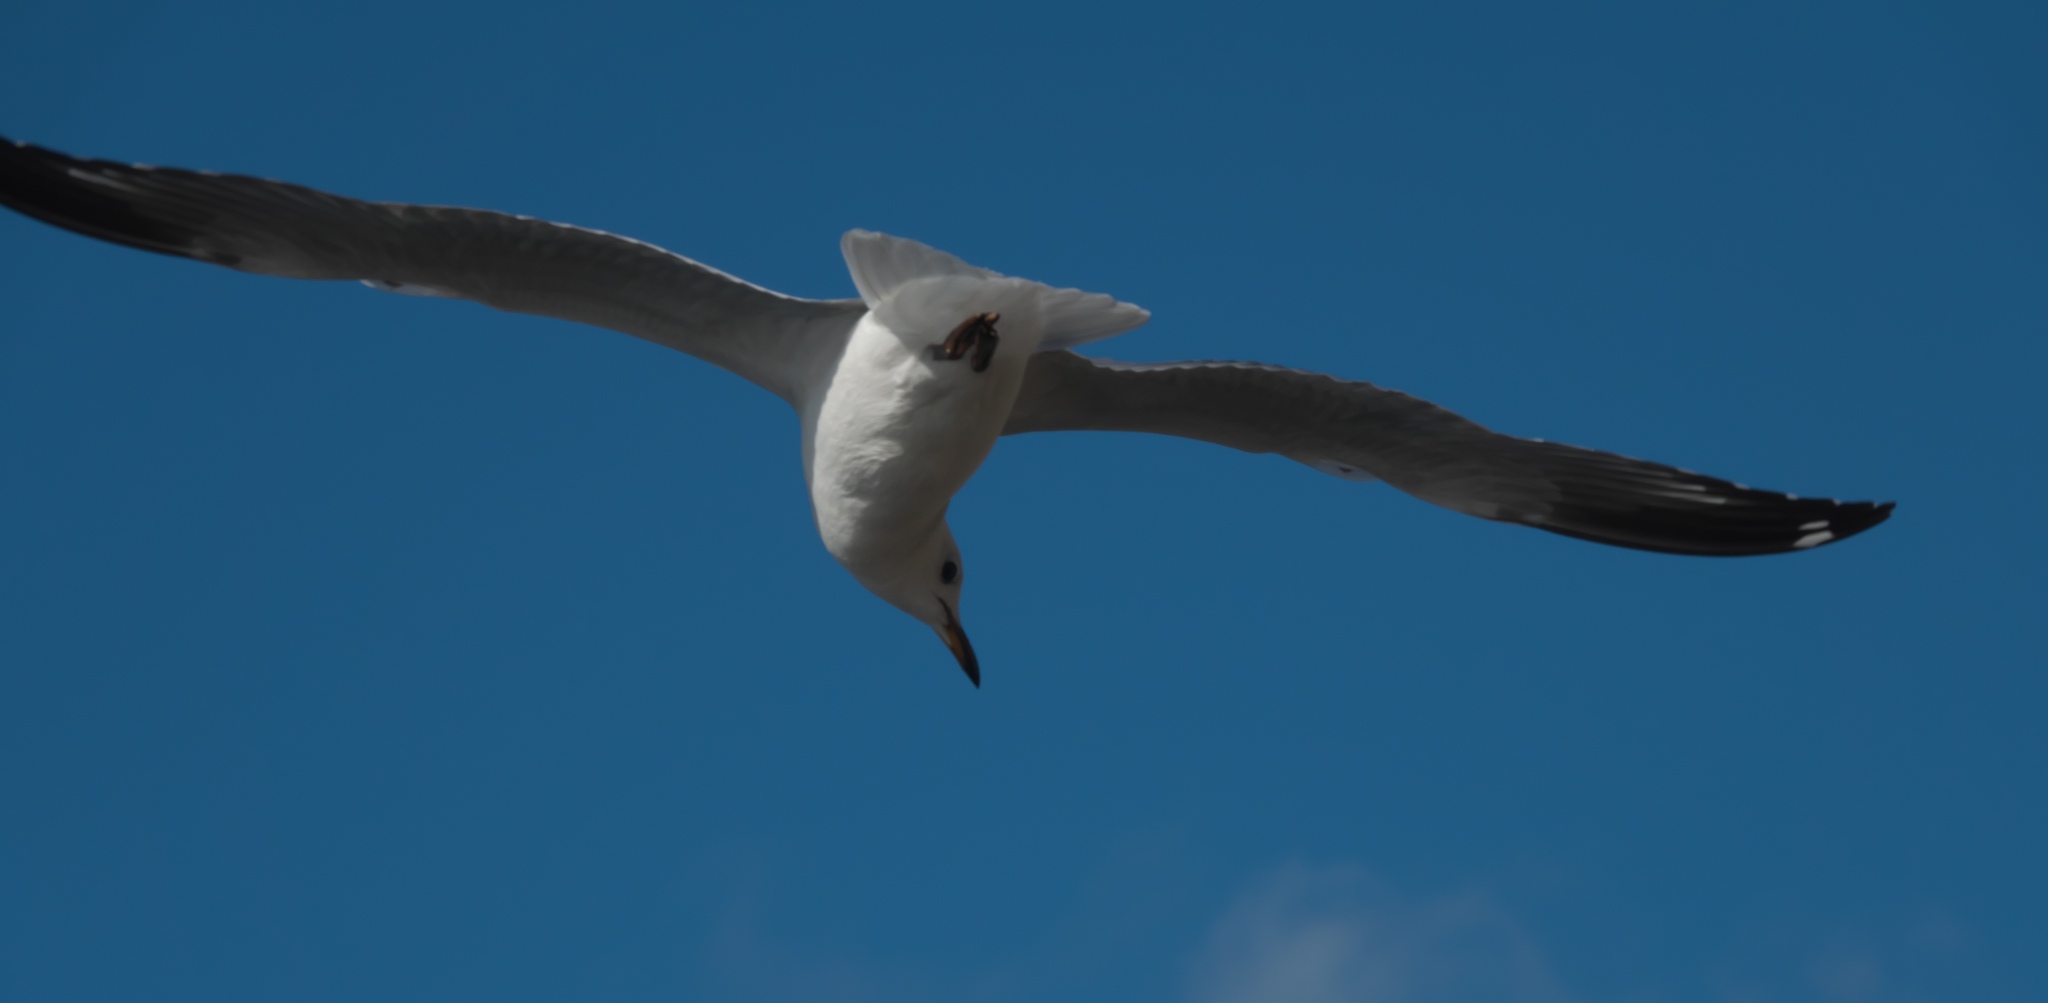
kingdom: Animalia
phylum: Chordata
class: Aves
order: Charadriiformes
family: Laridae
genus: Chroicocephalus
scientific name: Chroicocephalus novaehollandiae
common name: Silver gull
